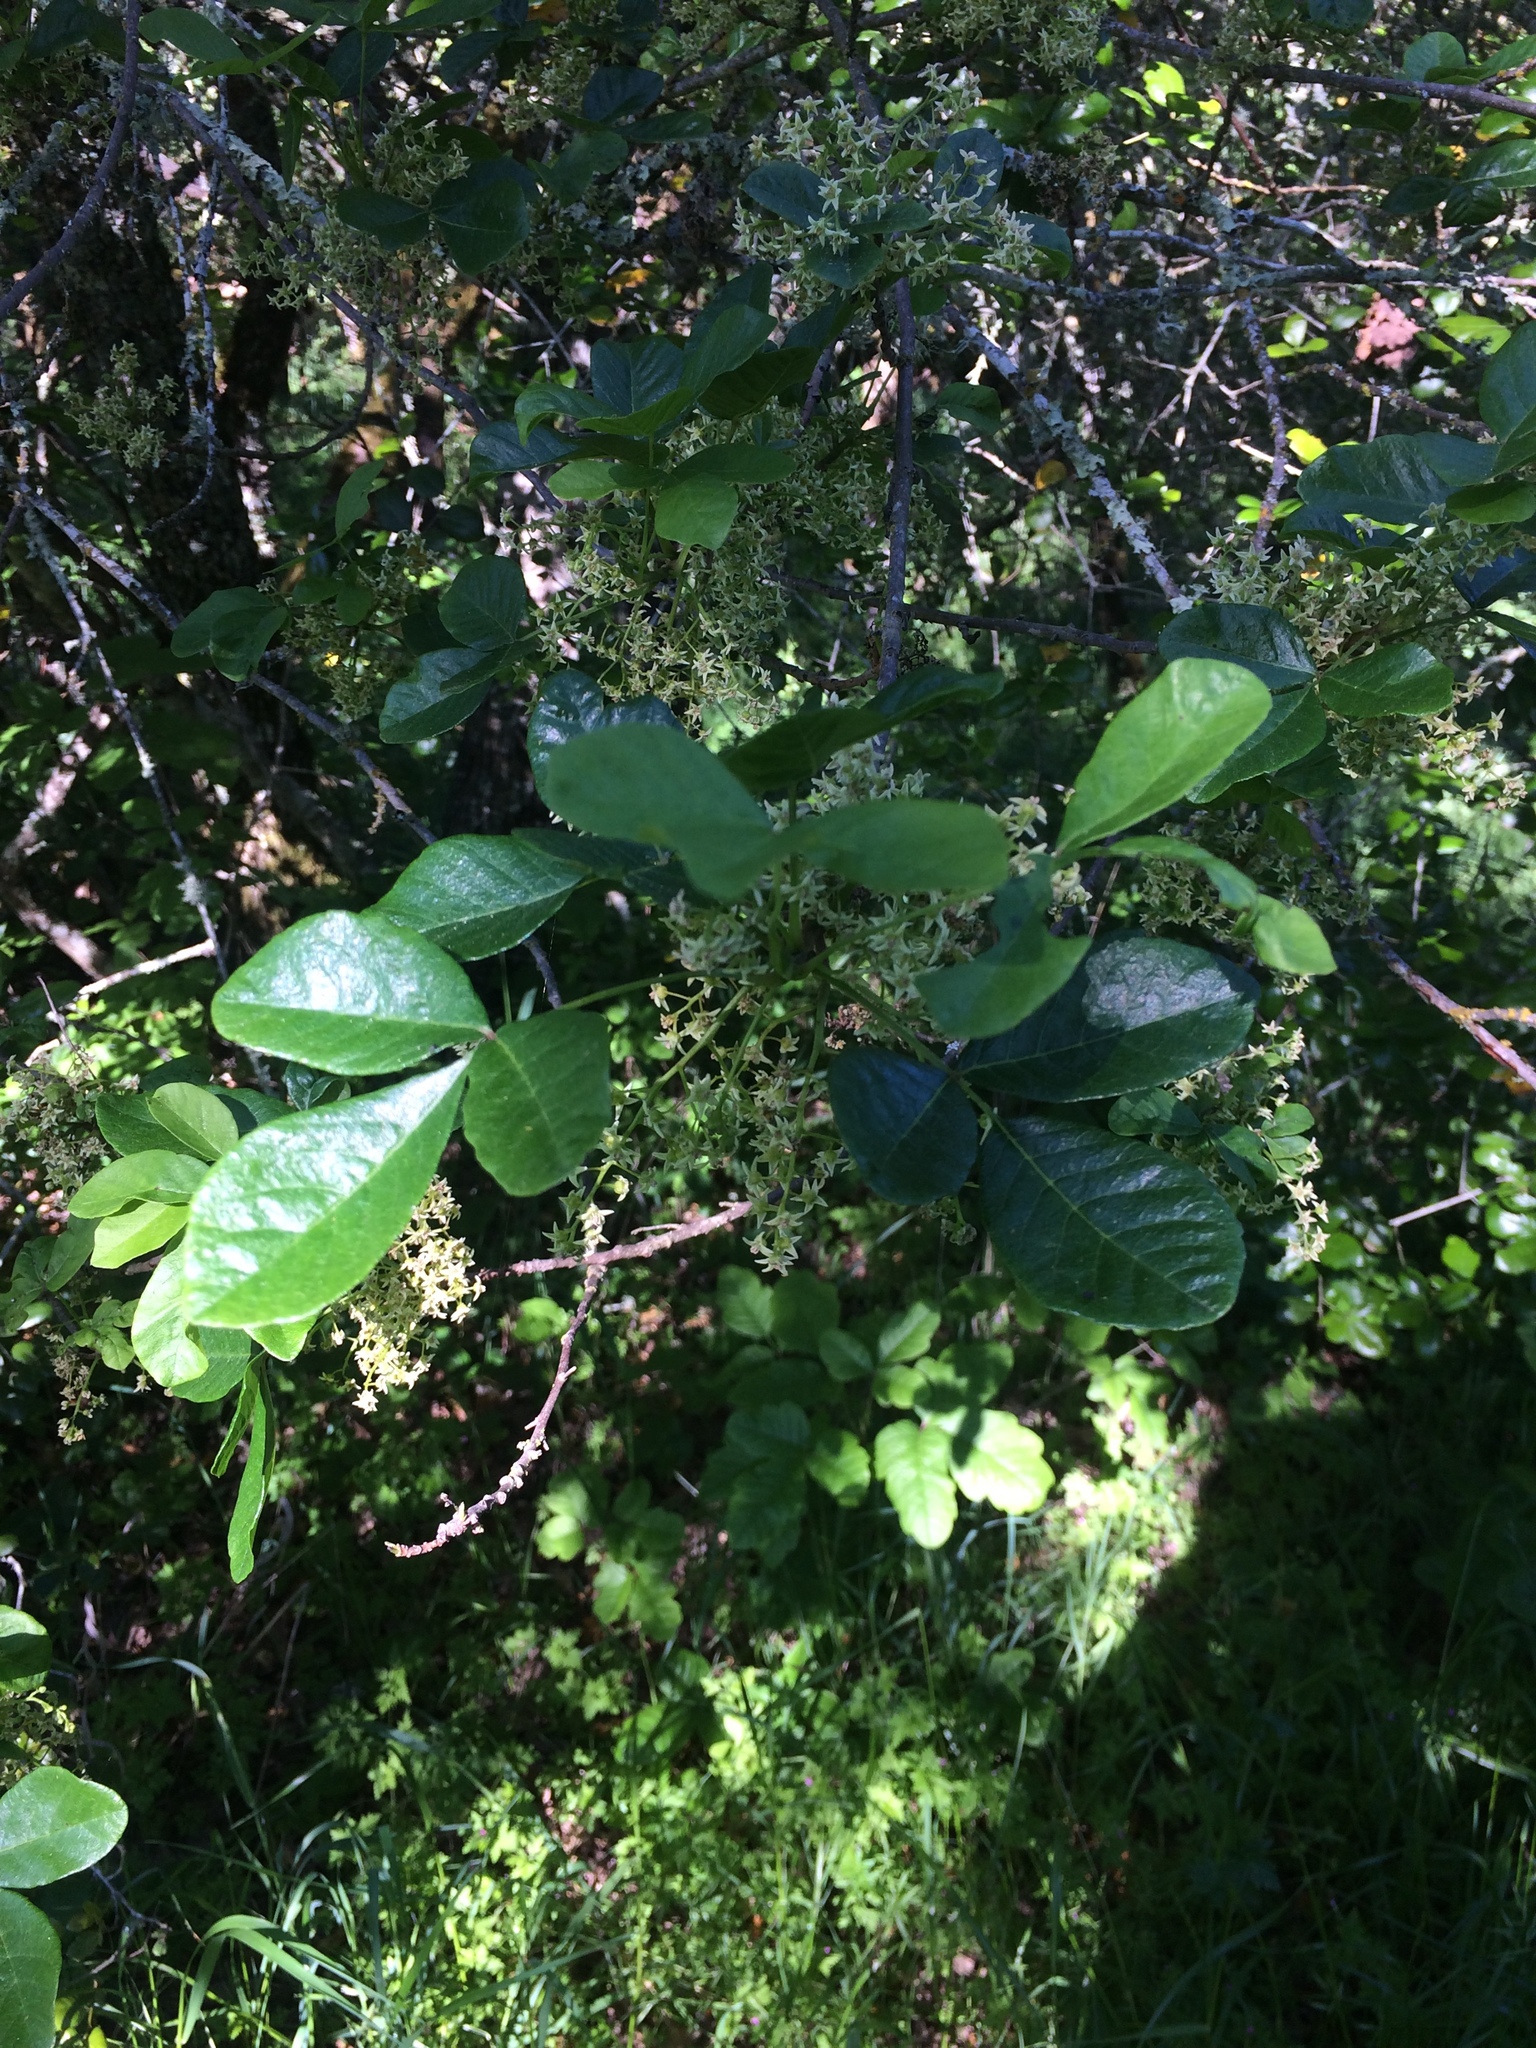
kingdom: Plantae
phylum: Tracheophyta
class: Magnoliopsida
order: Lamiales
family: Oleaceae
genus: Fraxinus
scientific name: Fraxinus dipetala
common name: California ash
